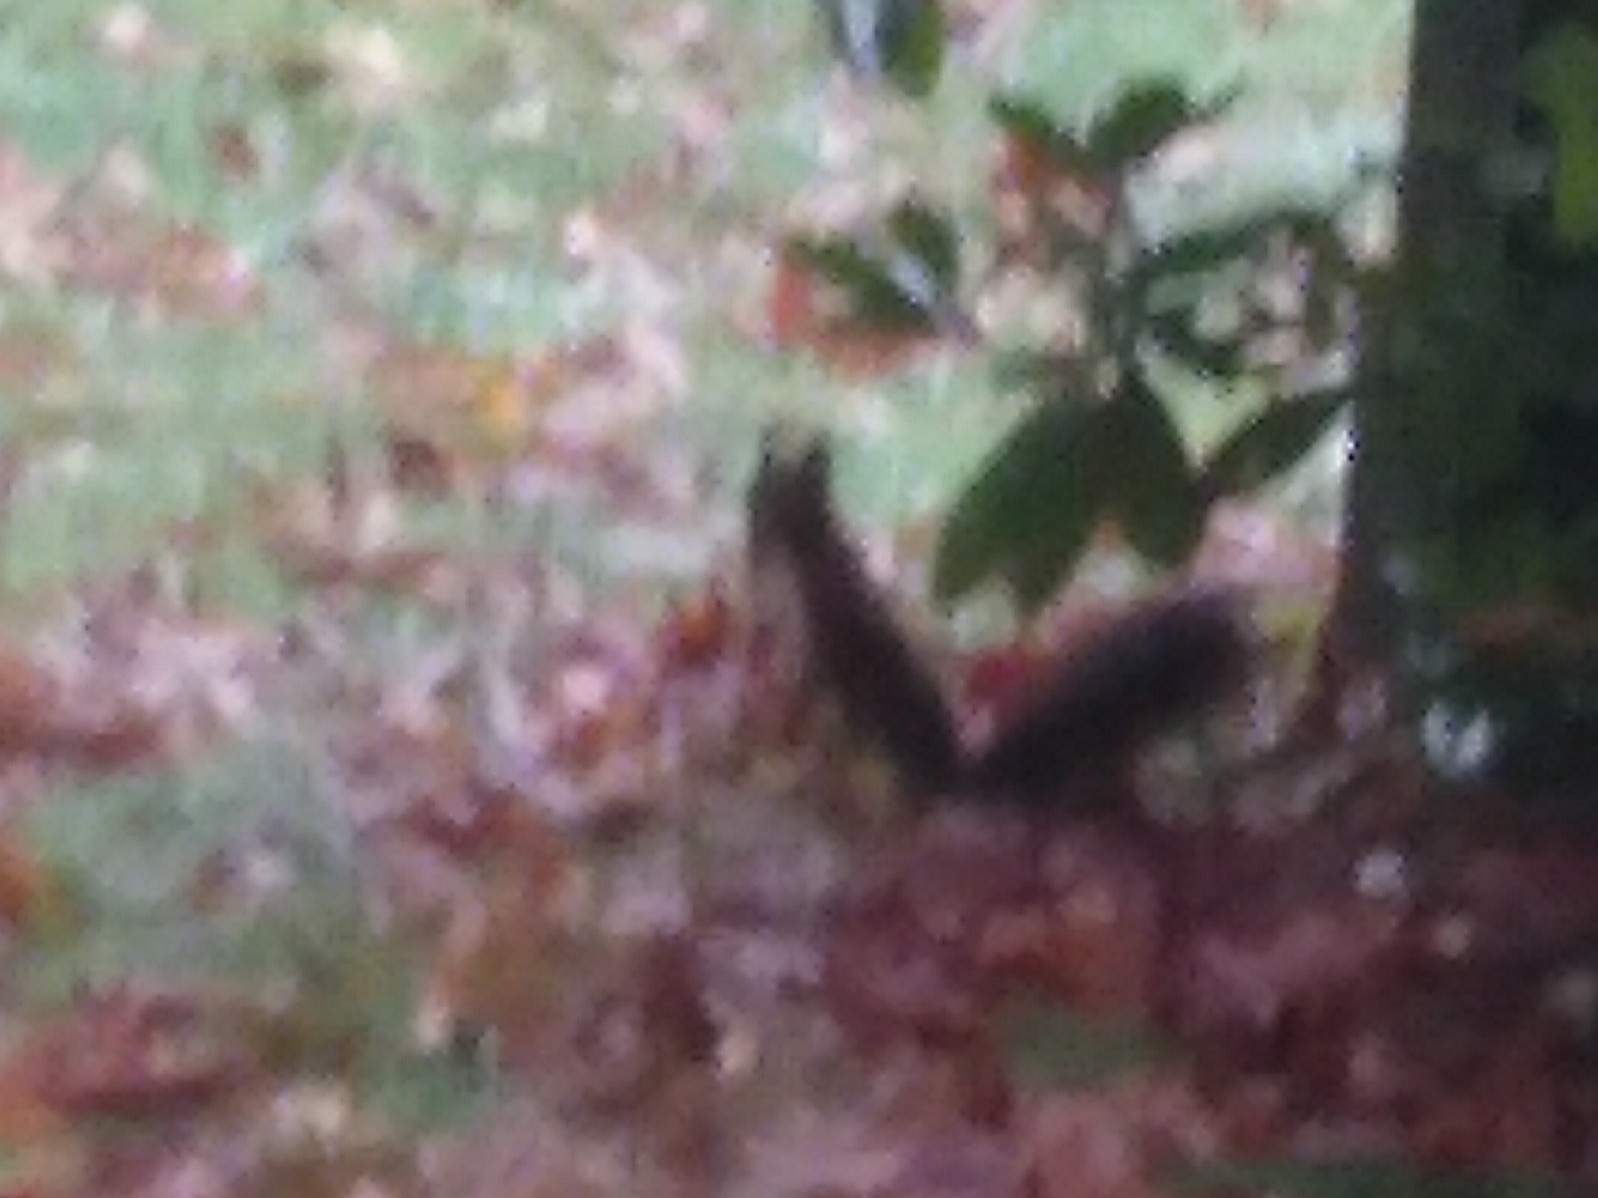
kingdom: Animalia
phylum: Chordata
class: Mammalia
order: Rodentia
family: Sciuridae
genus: Sciurus
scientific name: Sciurus vulgaris
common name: Eurasian red squirrel
